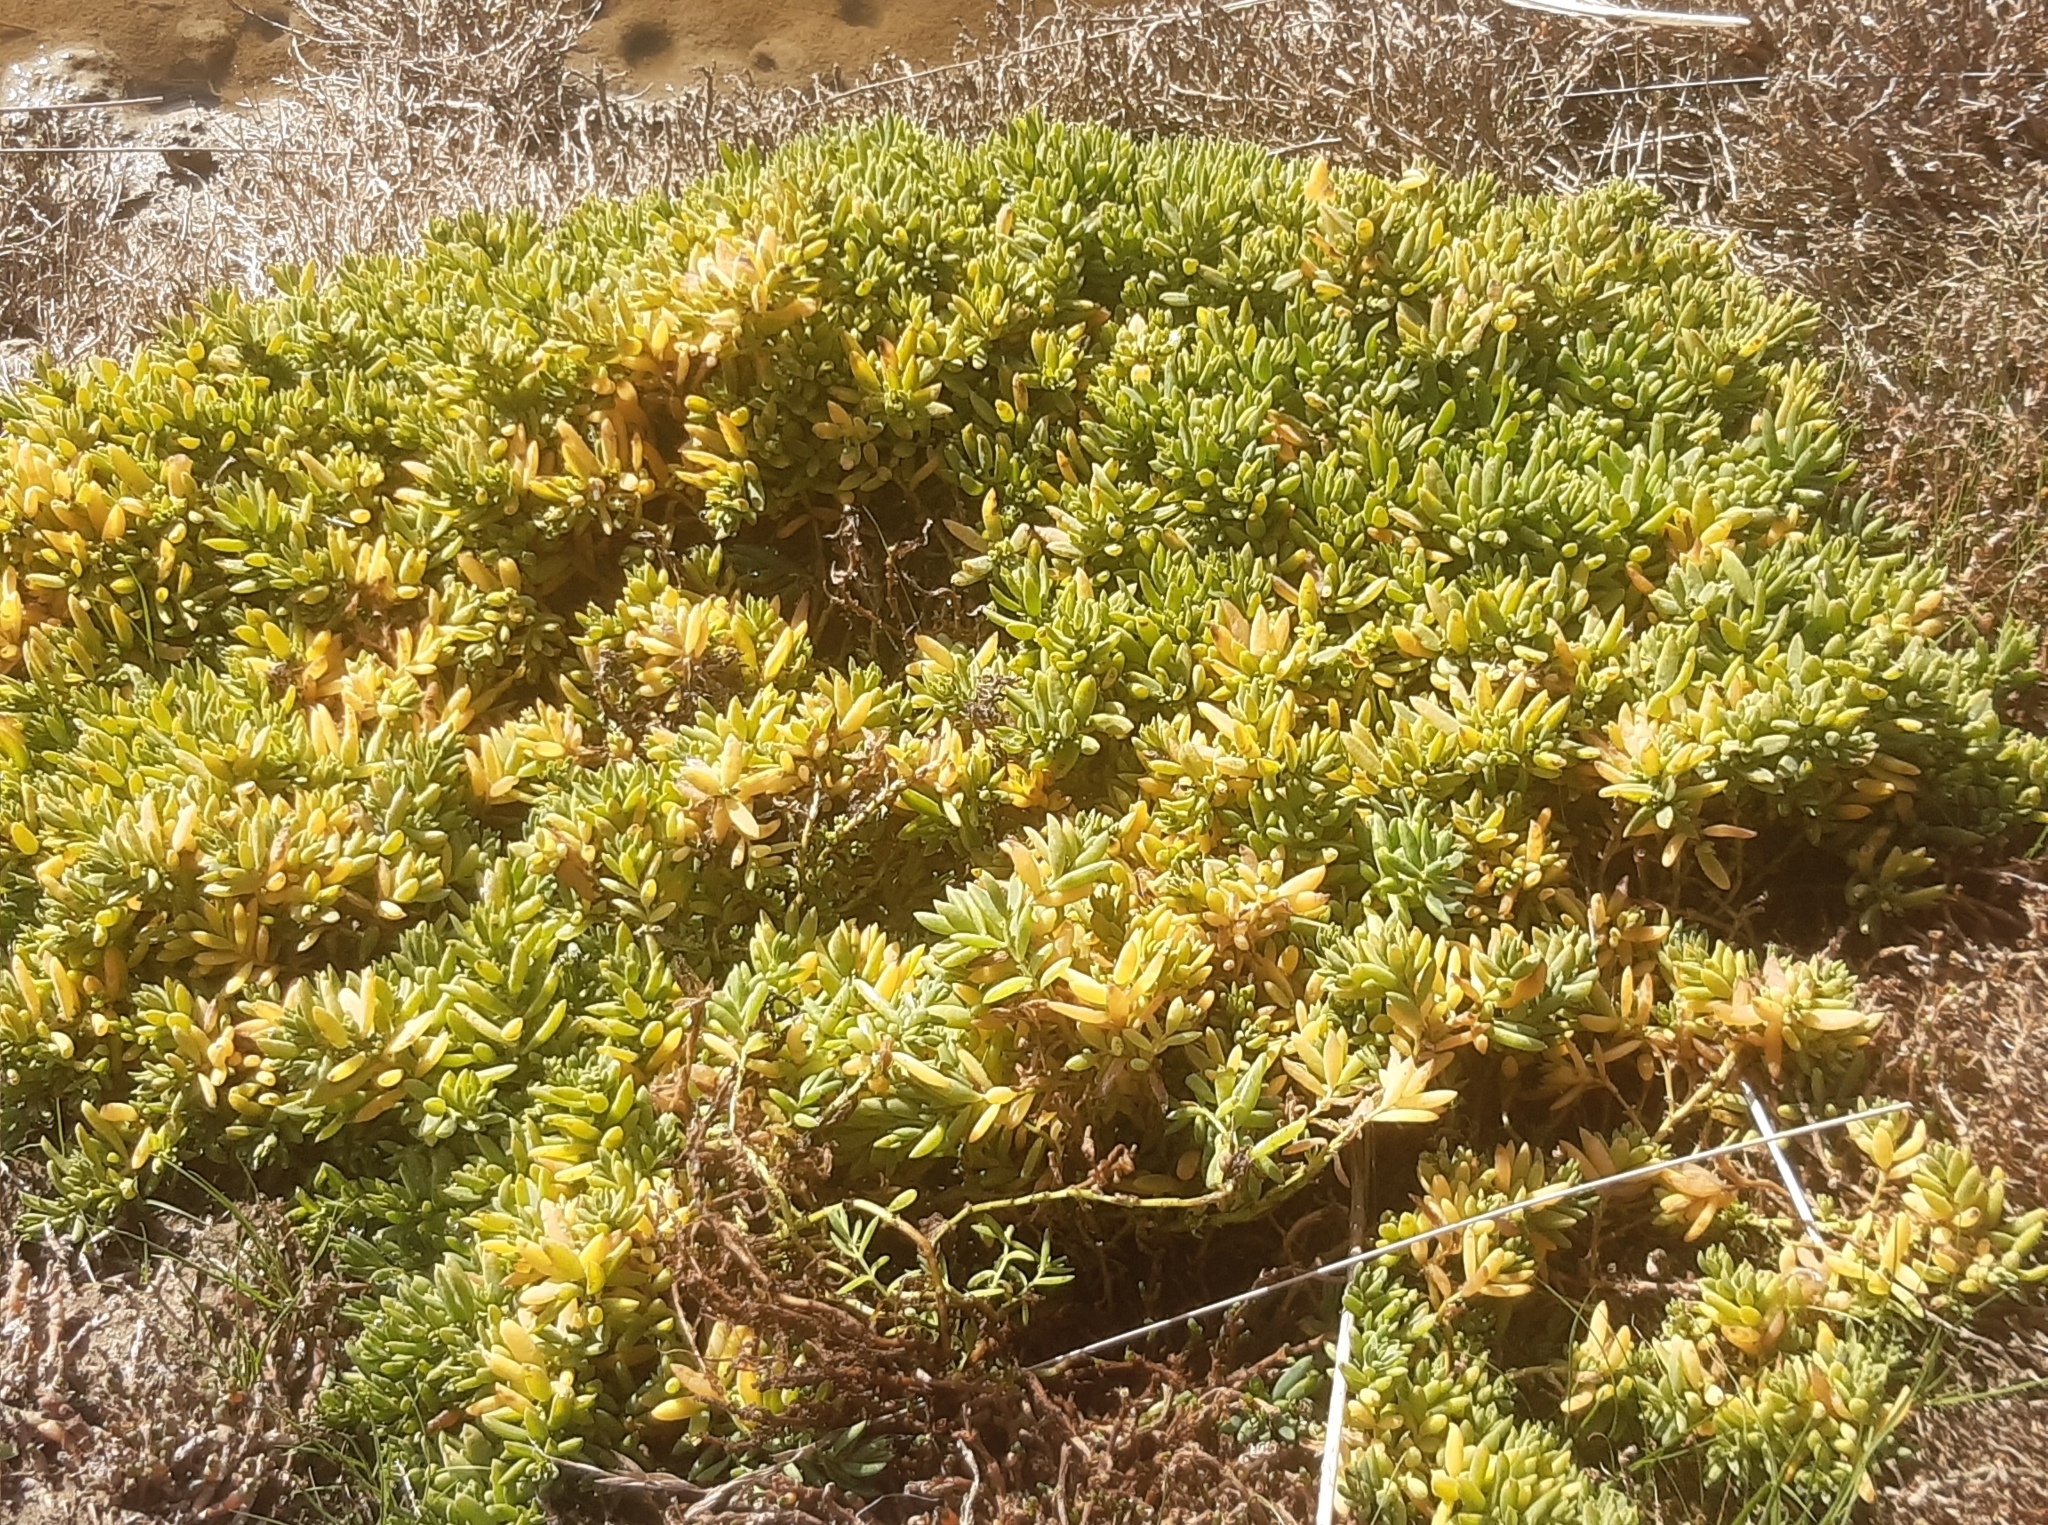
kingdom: Plantae
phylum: Tracheophyta
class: Magnoliopsida
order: Caryophyllales
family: Amaranthaceae
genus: Suaeda
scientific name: Suaeda novae-zelandiae
